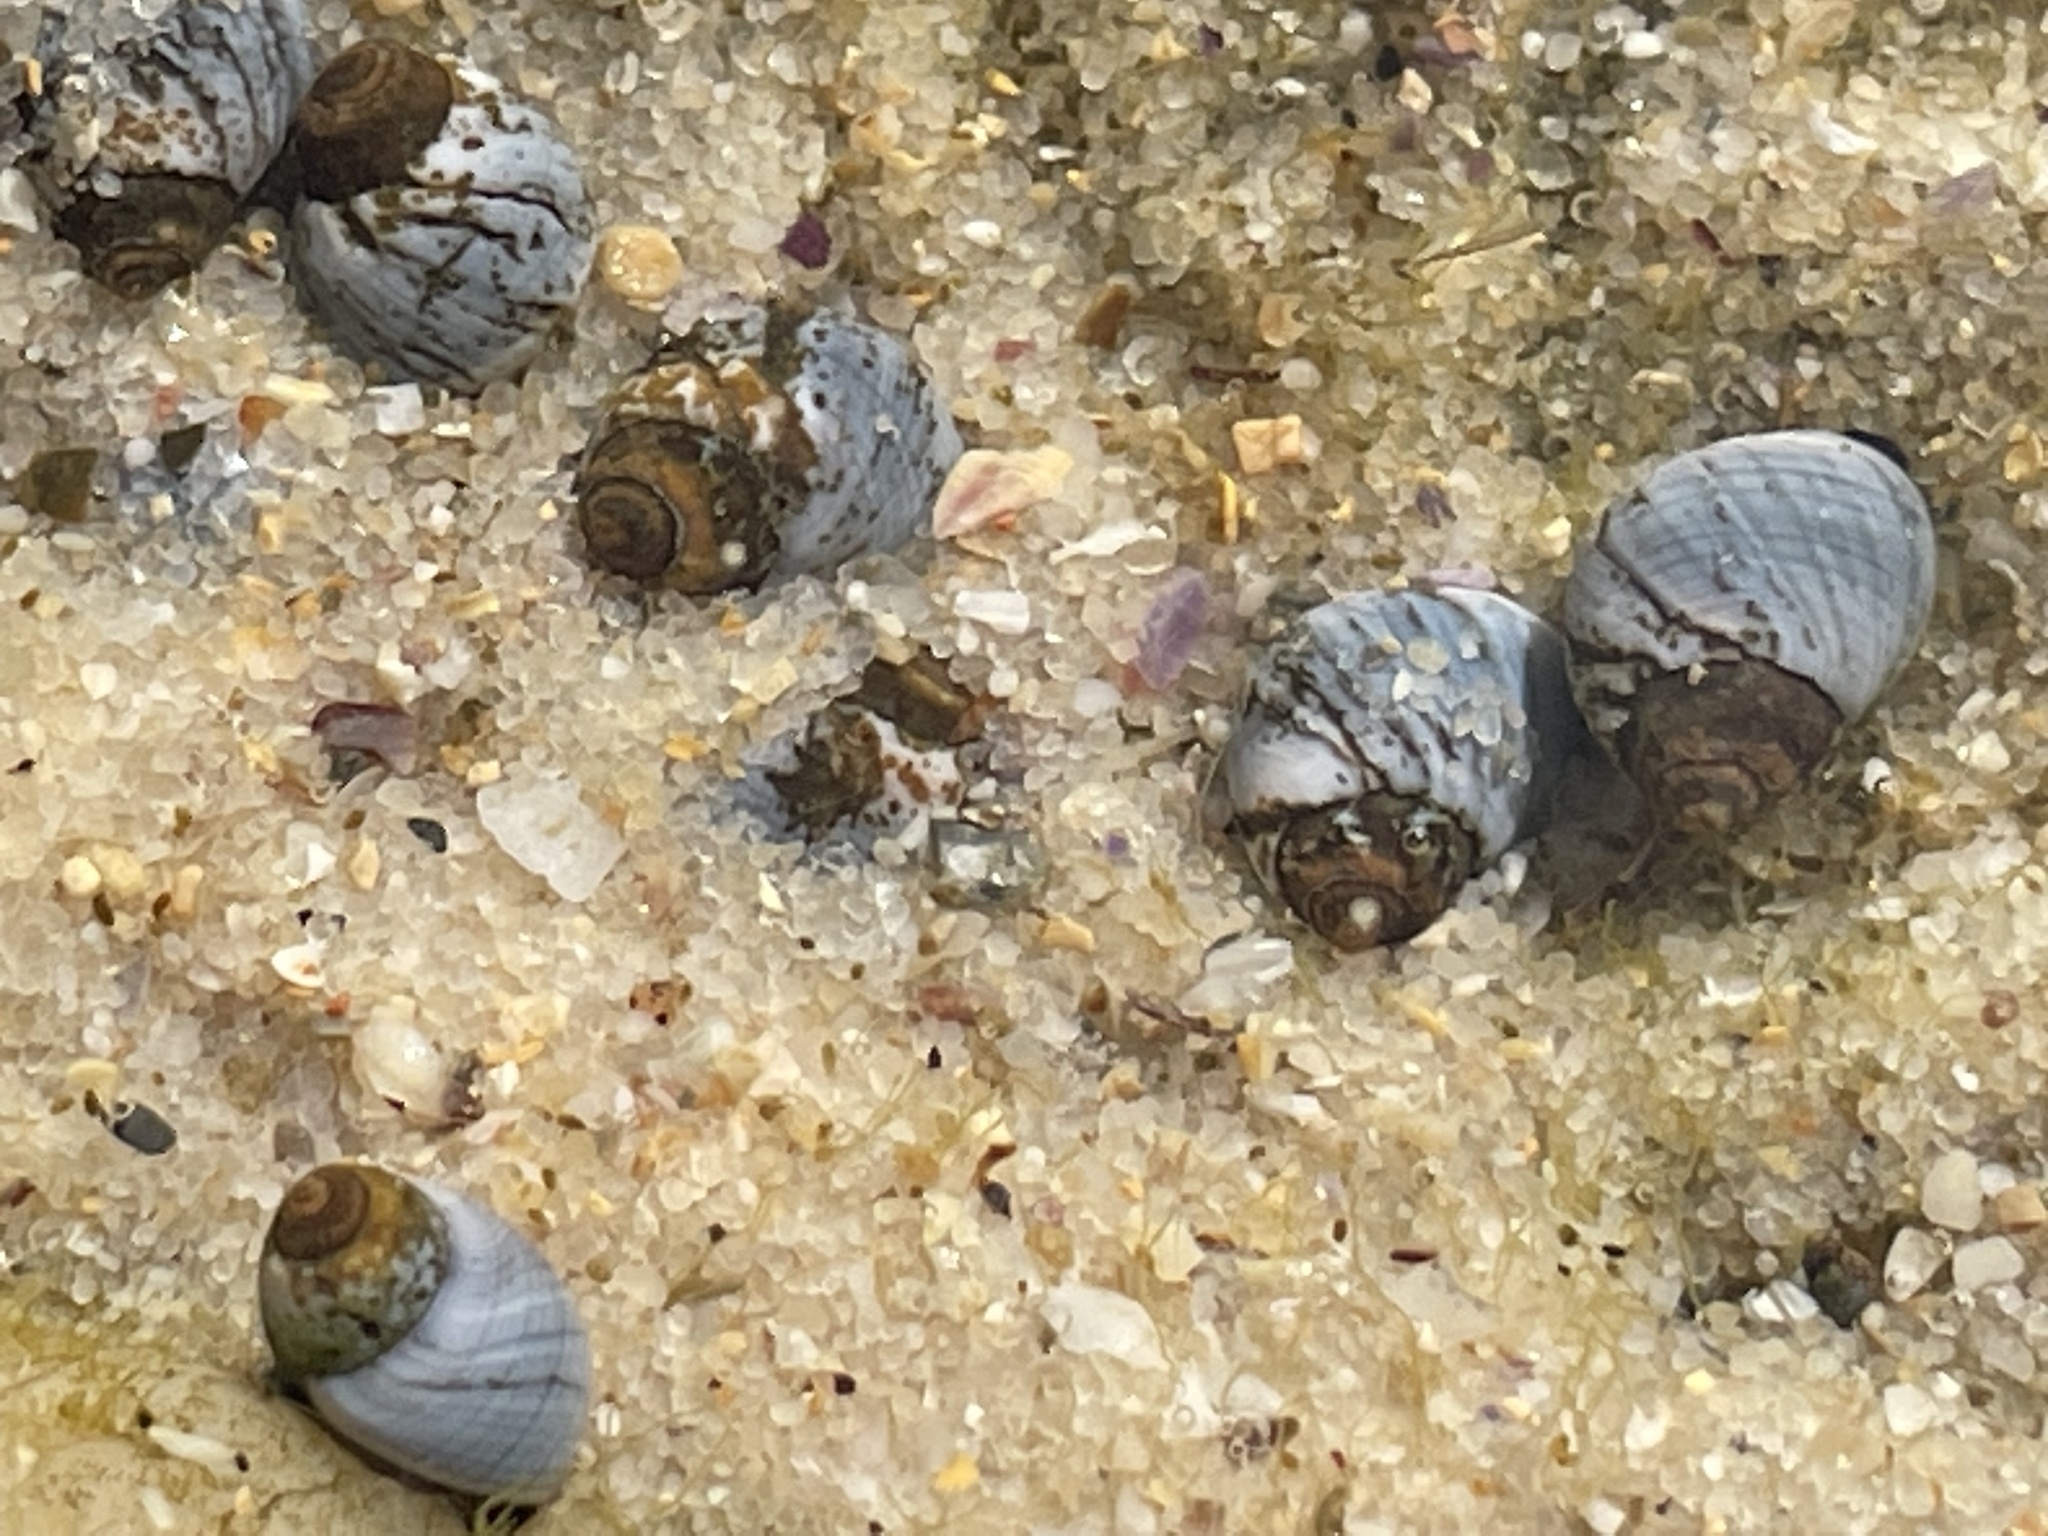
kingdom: Animalia
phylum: Mollusca
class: Gastropoda
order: Littorinimorpha
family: Littorinidae
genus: Austrolittorina
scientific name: Austrolittorina unifasciata
